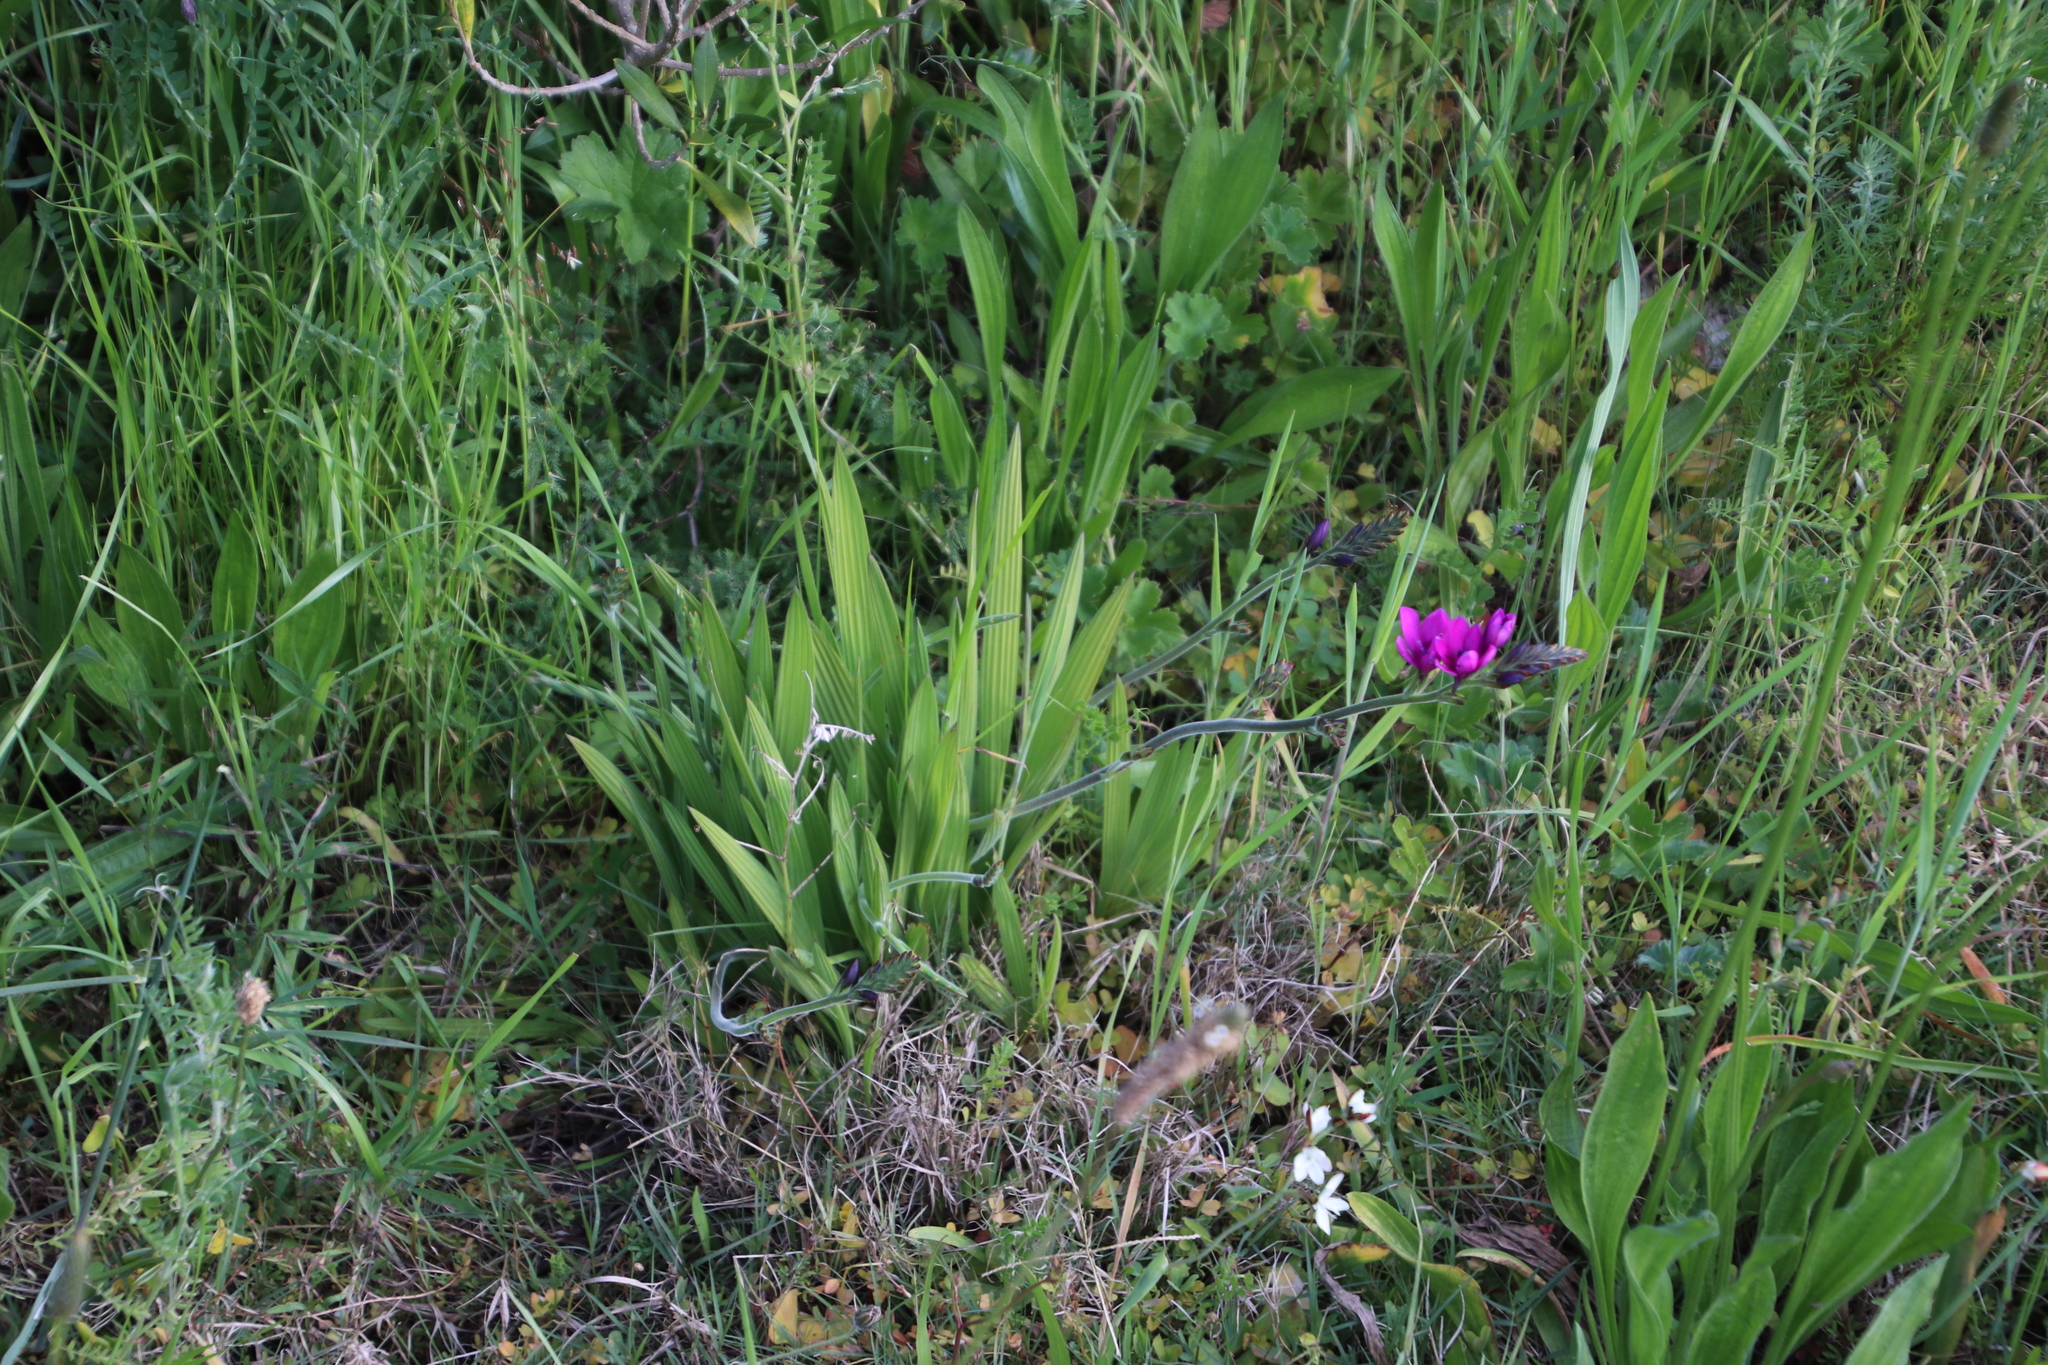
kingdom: Plantae
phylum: Tracheophyta
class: Liliopsida
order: Asparagales
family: Iridaceae
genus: Babiana
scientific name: Babiana angustifolia
